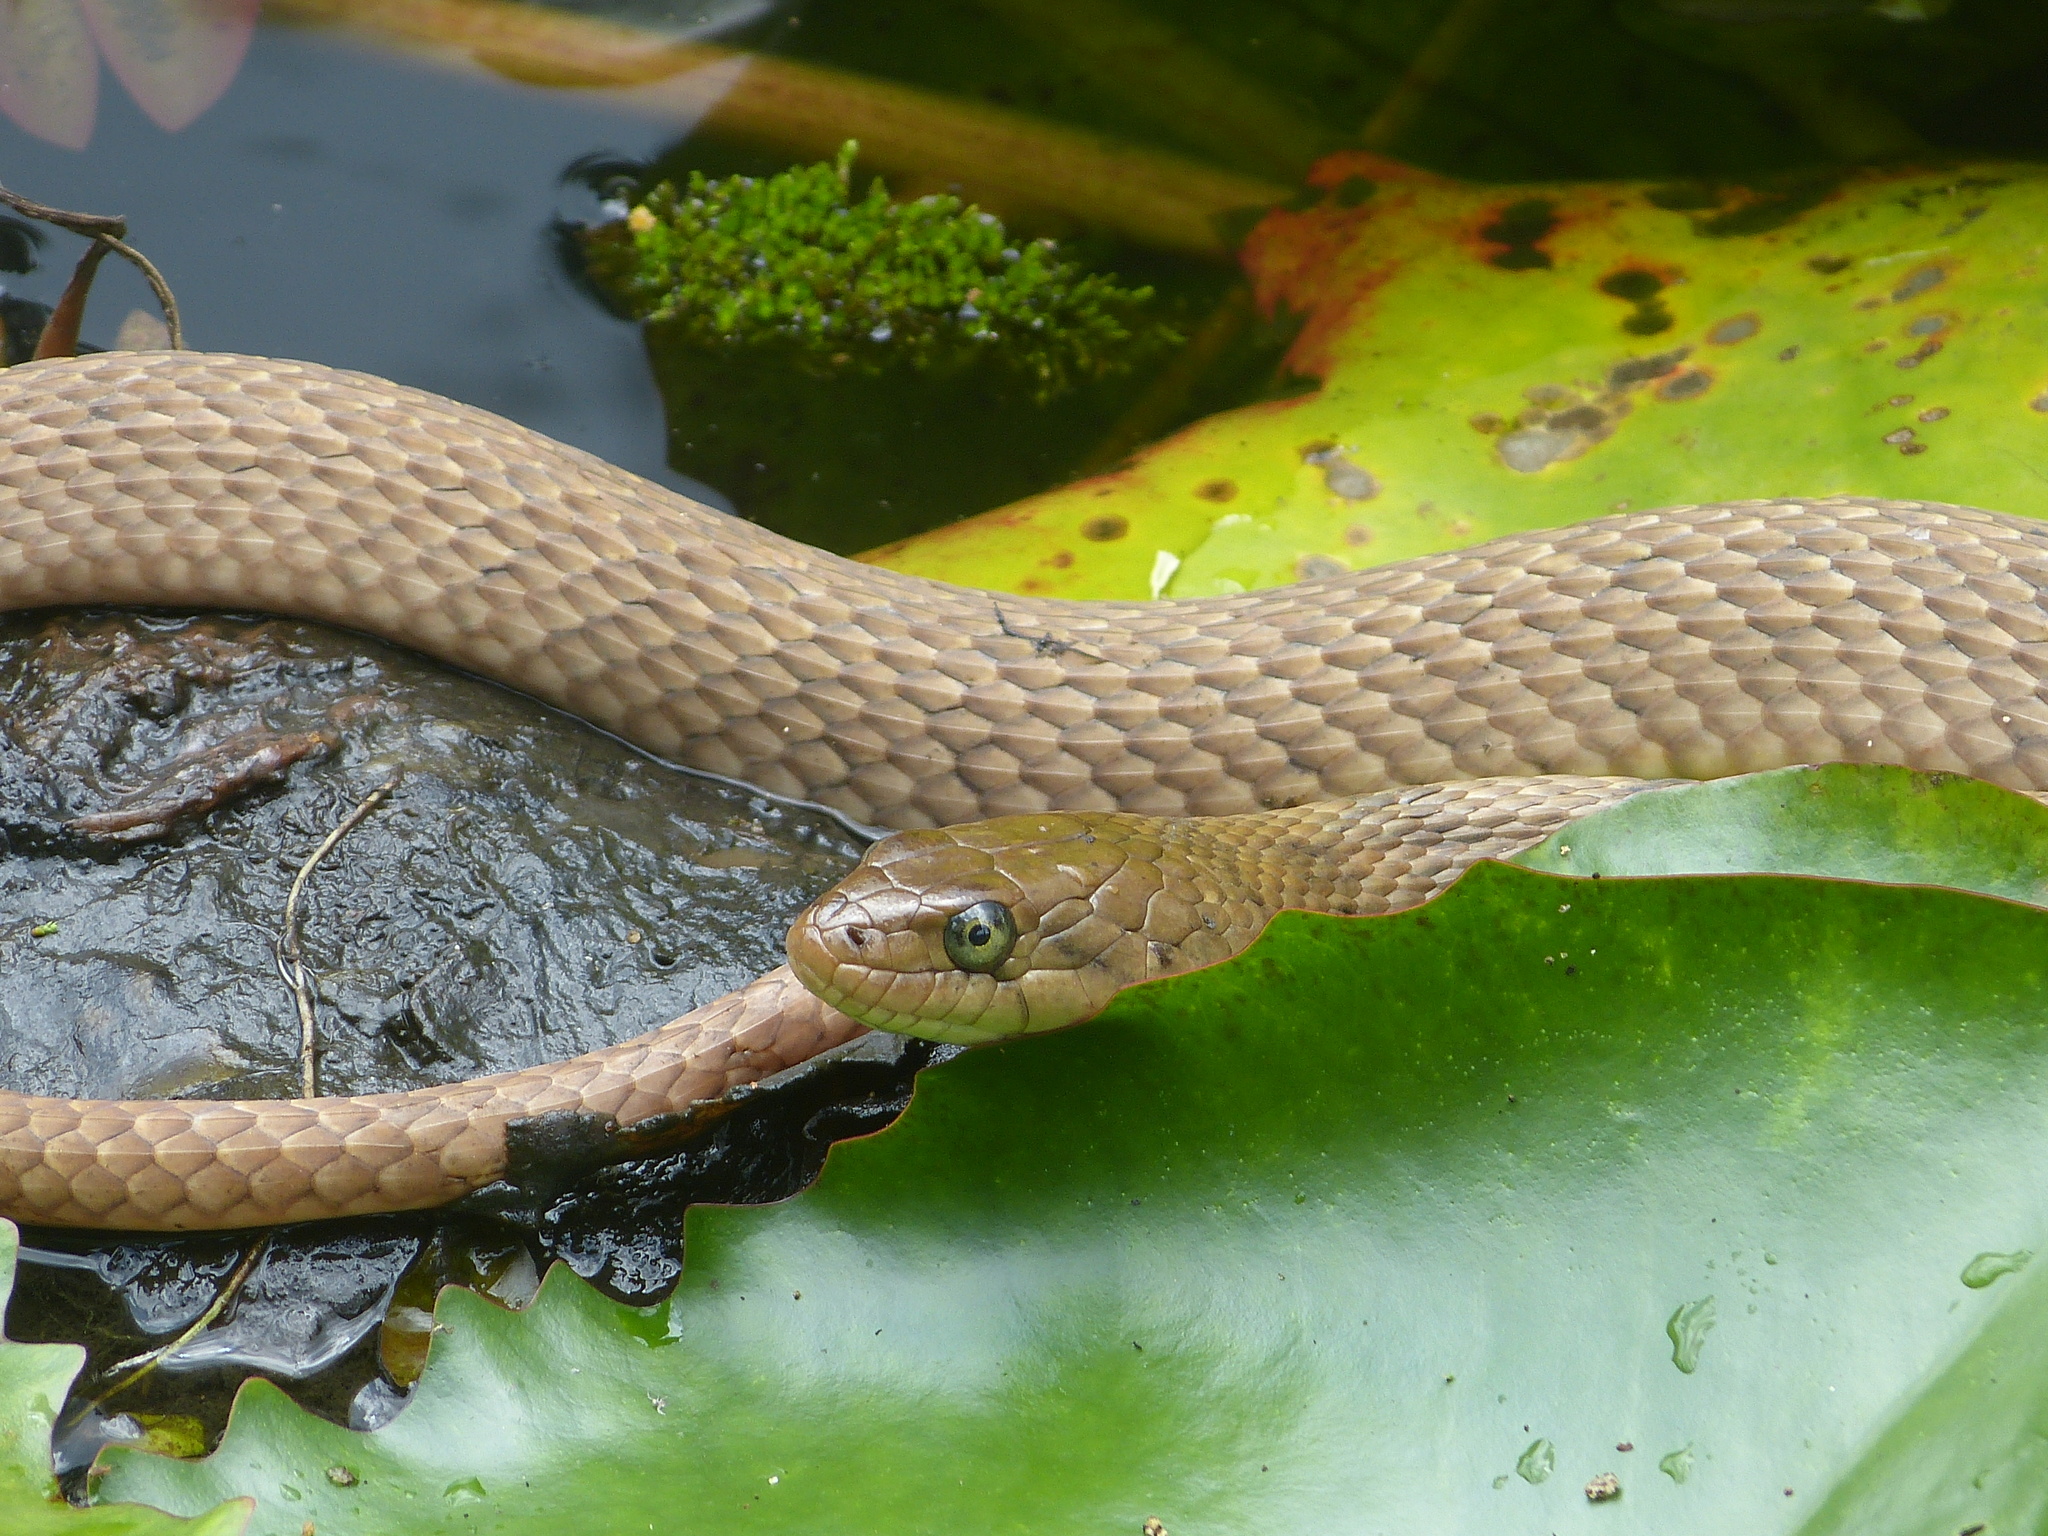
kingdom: Animalia
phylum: Chordata
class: Squamata
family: Colubridae
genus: Fowlea
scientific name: Fowlea piscator
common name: Asiatic water snake
